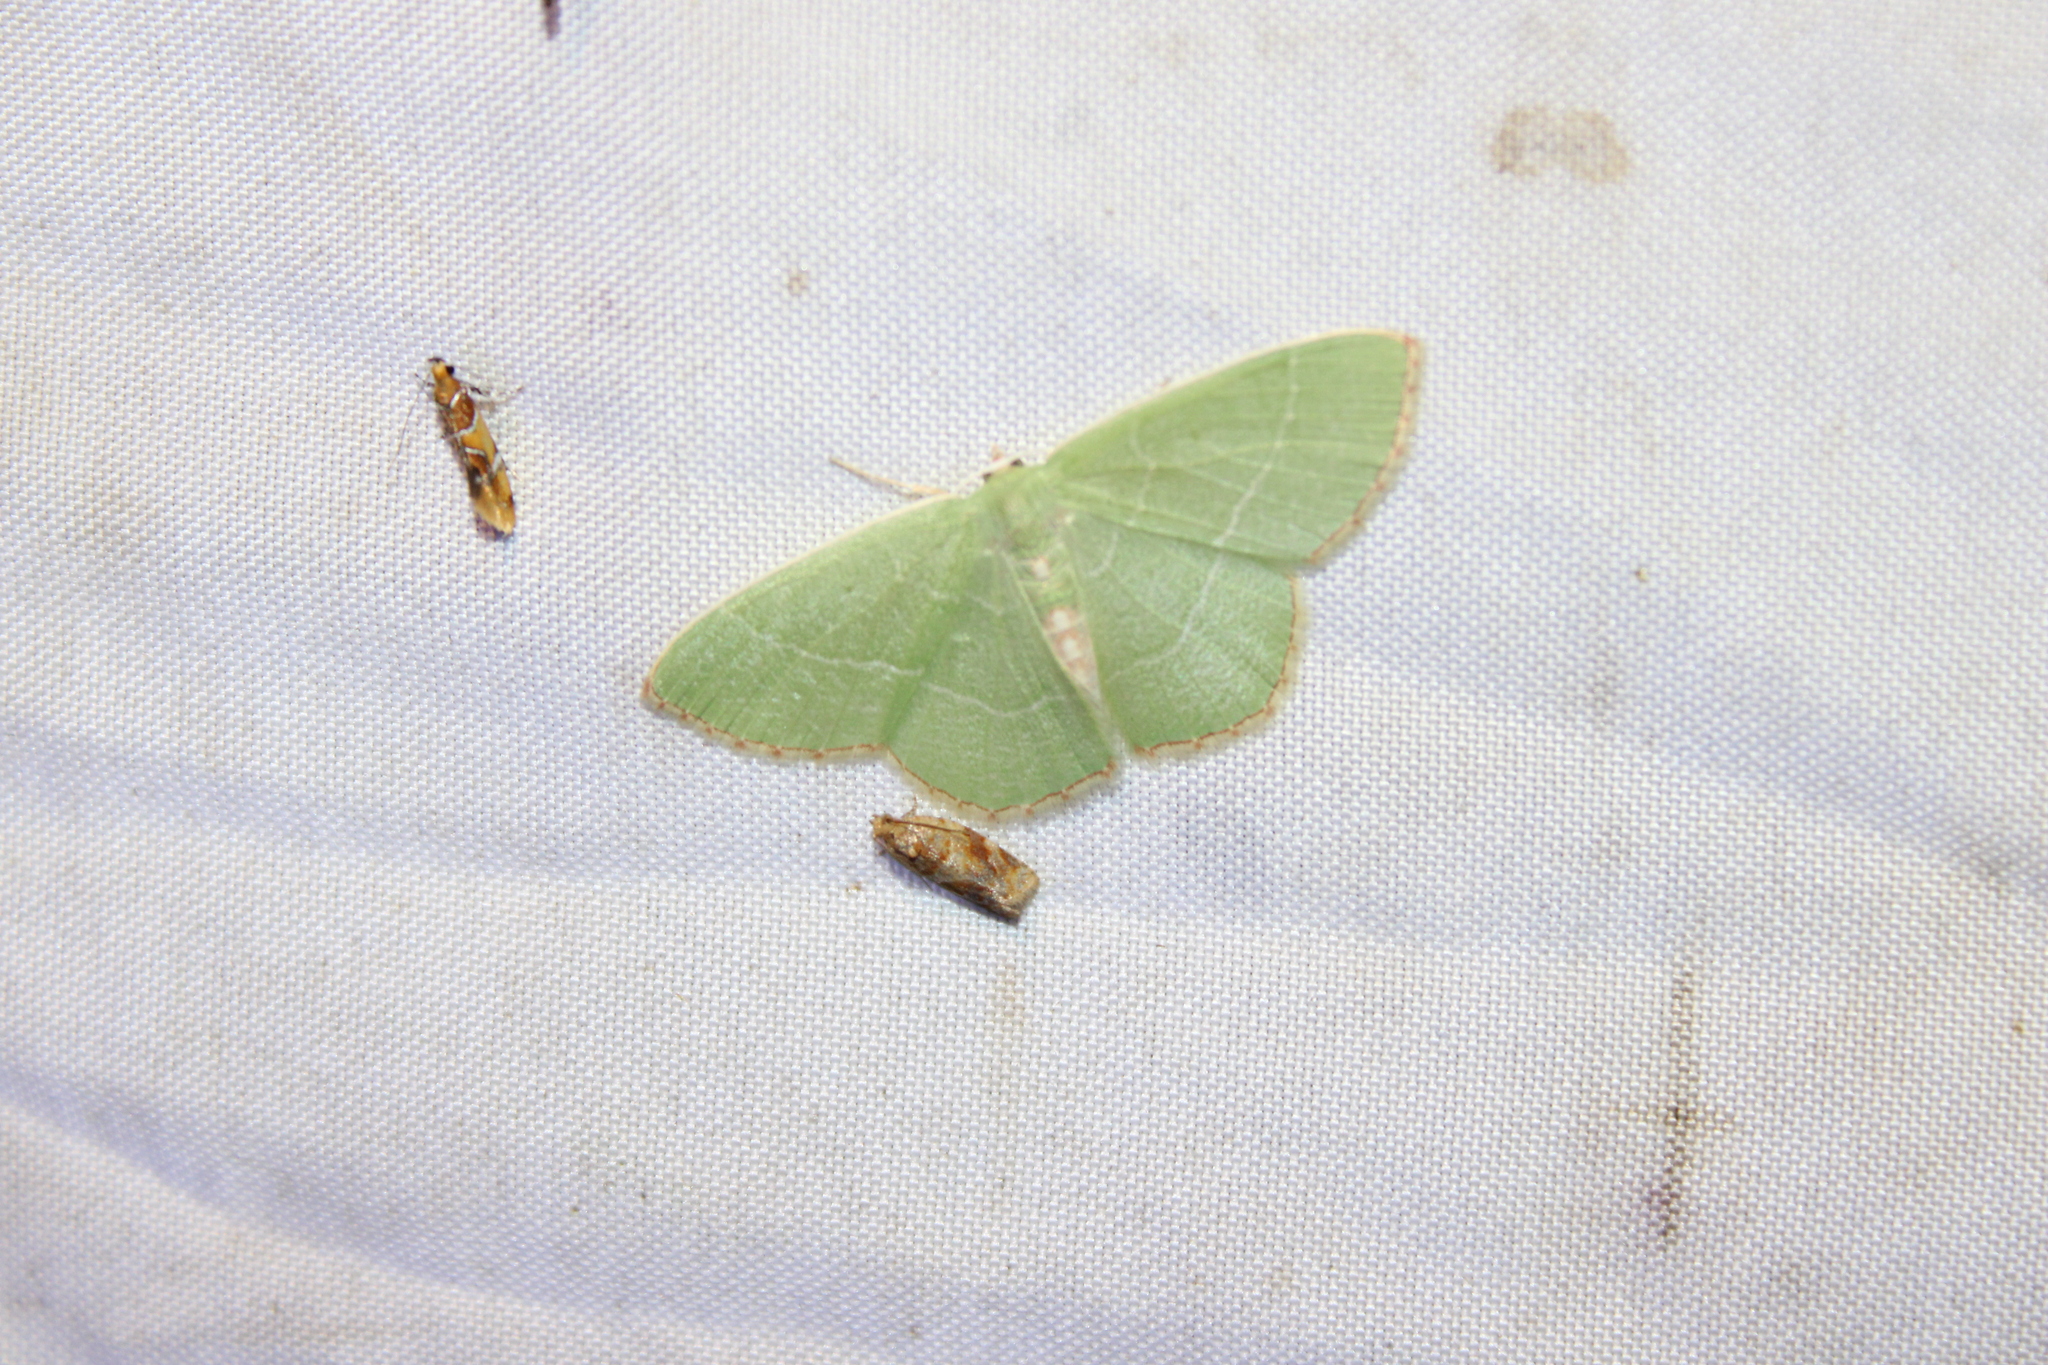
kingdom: Animalia
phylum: Arthropoda
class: Insecta
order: Lepidoptera
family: Geometridae
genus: Nemoria
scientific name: Nemoria bistriaria
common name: Red-fringed emerald
